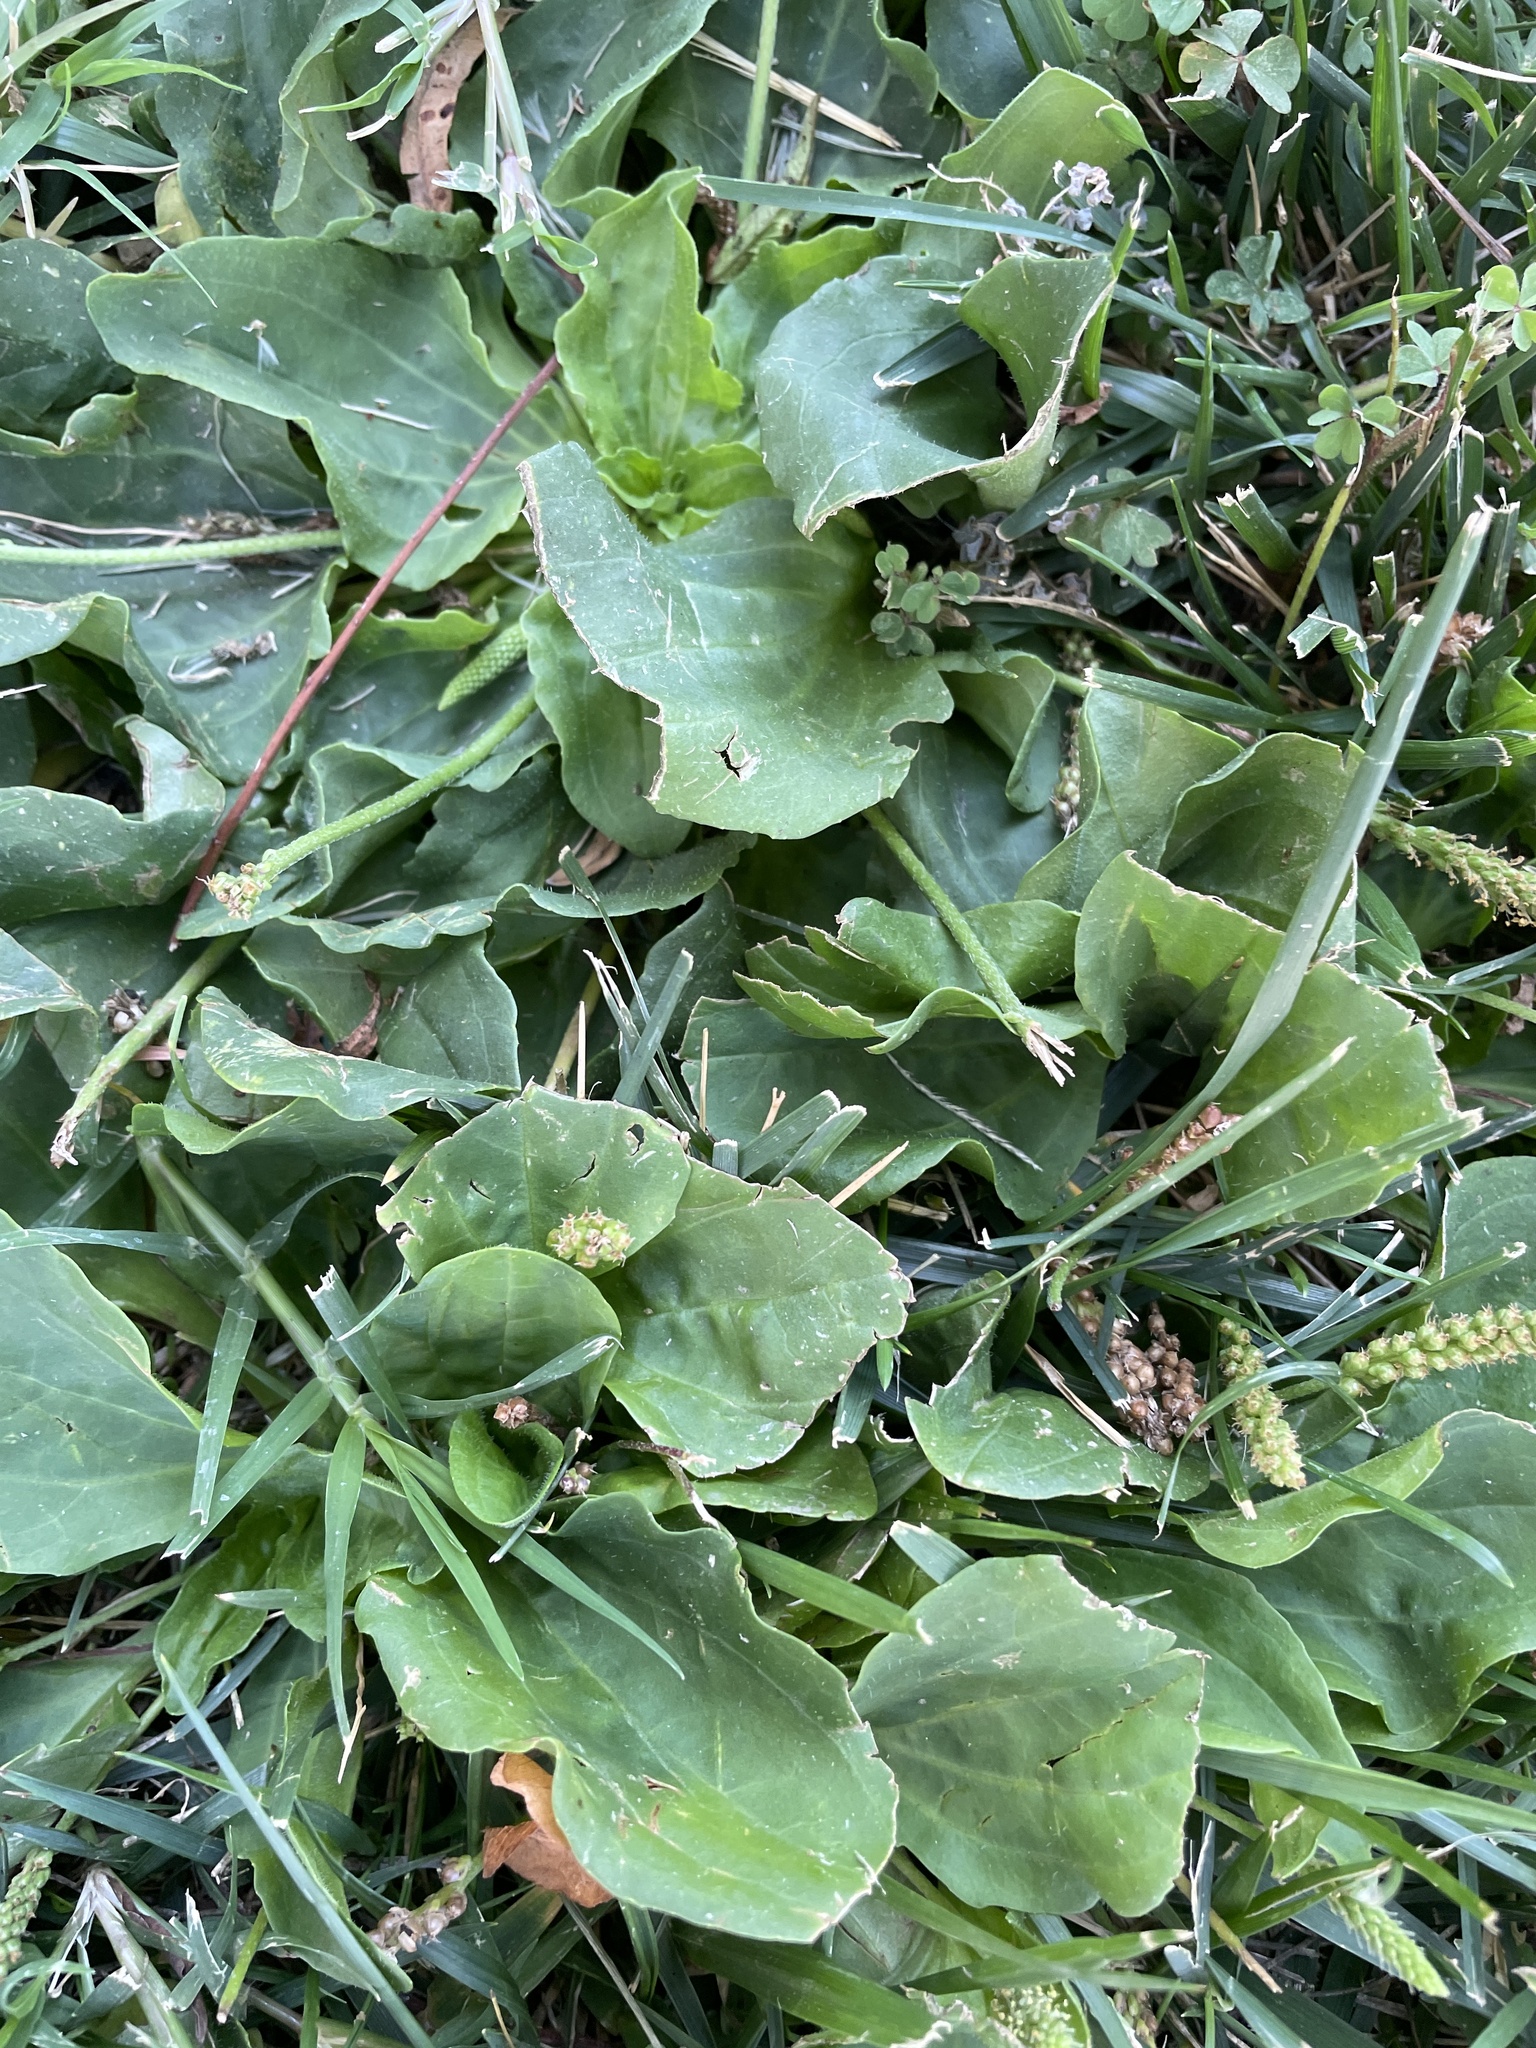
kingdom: Plantae
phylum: Tracheophyta
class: Magnoliopsida
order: Lamiales
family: Plantaginaceae
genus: Plantago
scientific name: Plantago major
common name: Common plantain
